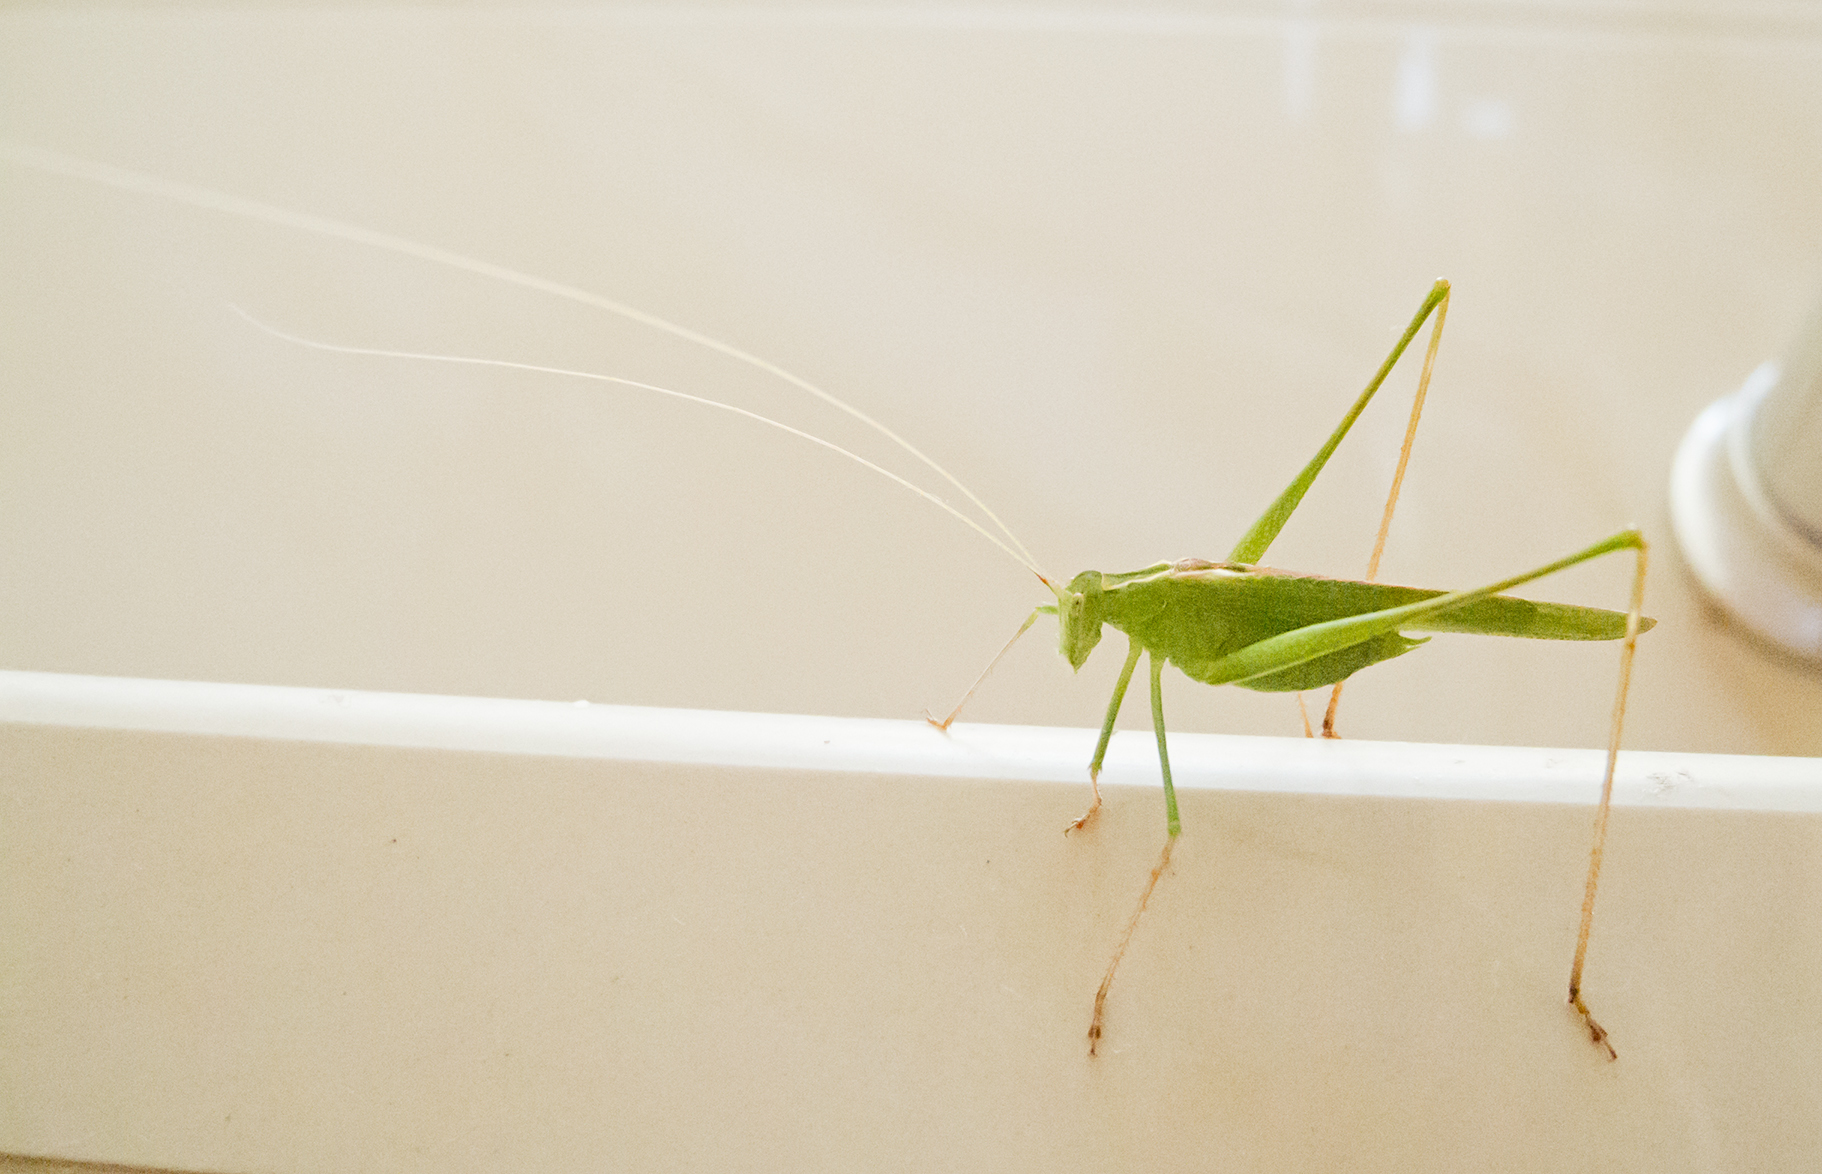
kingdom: Animalia
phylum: Arthropoda
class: Insecta
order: Orthoptera
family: Tettigoniidae
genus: Tylopsis
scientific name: Tylopsis lilifolia
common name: Lily bush-cricket
